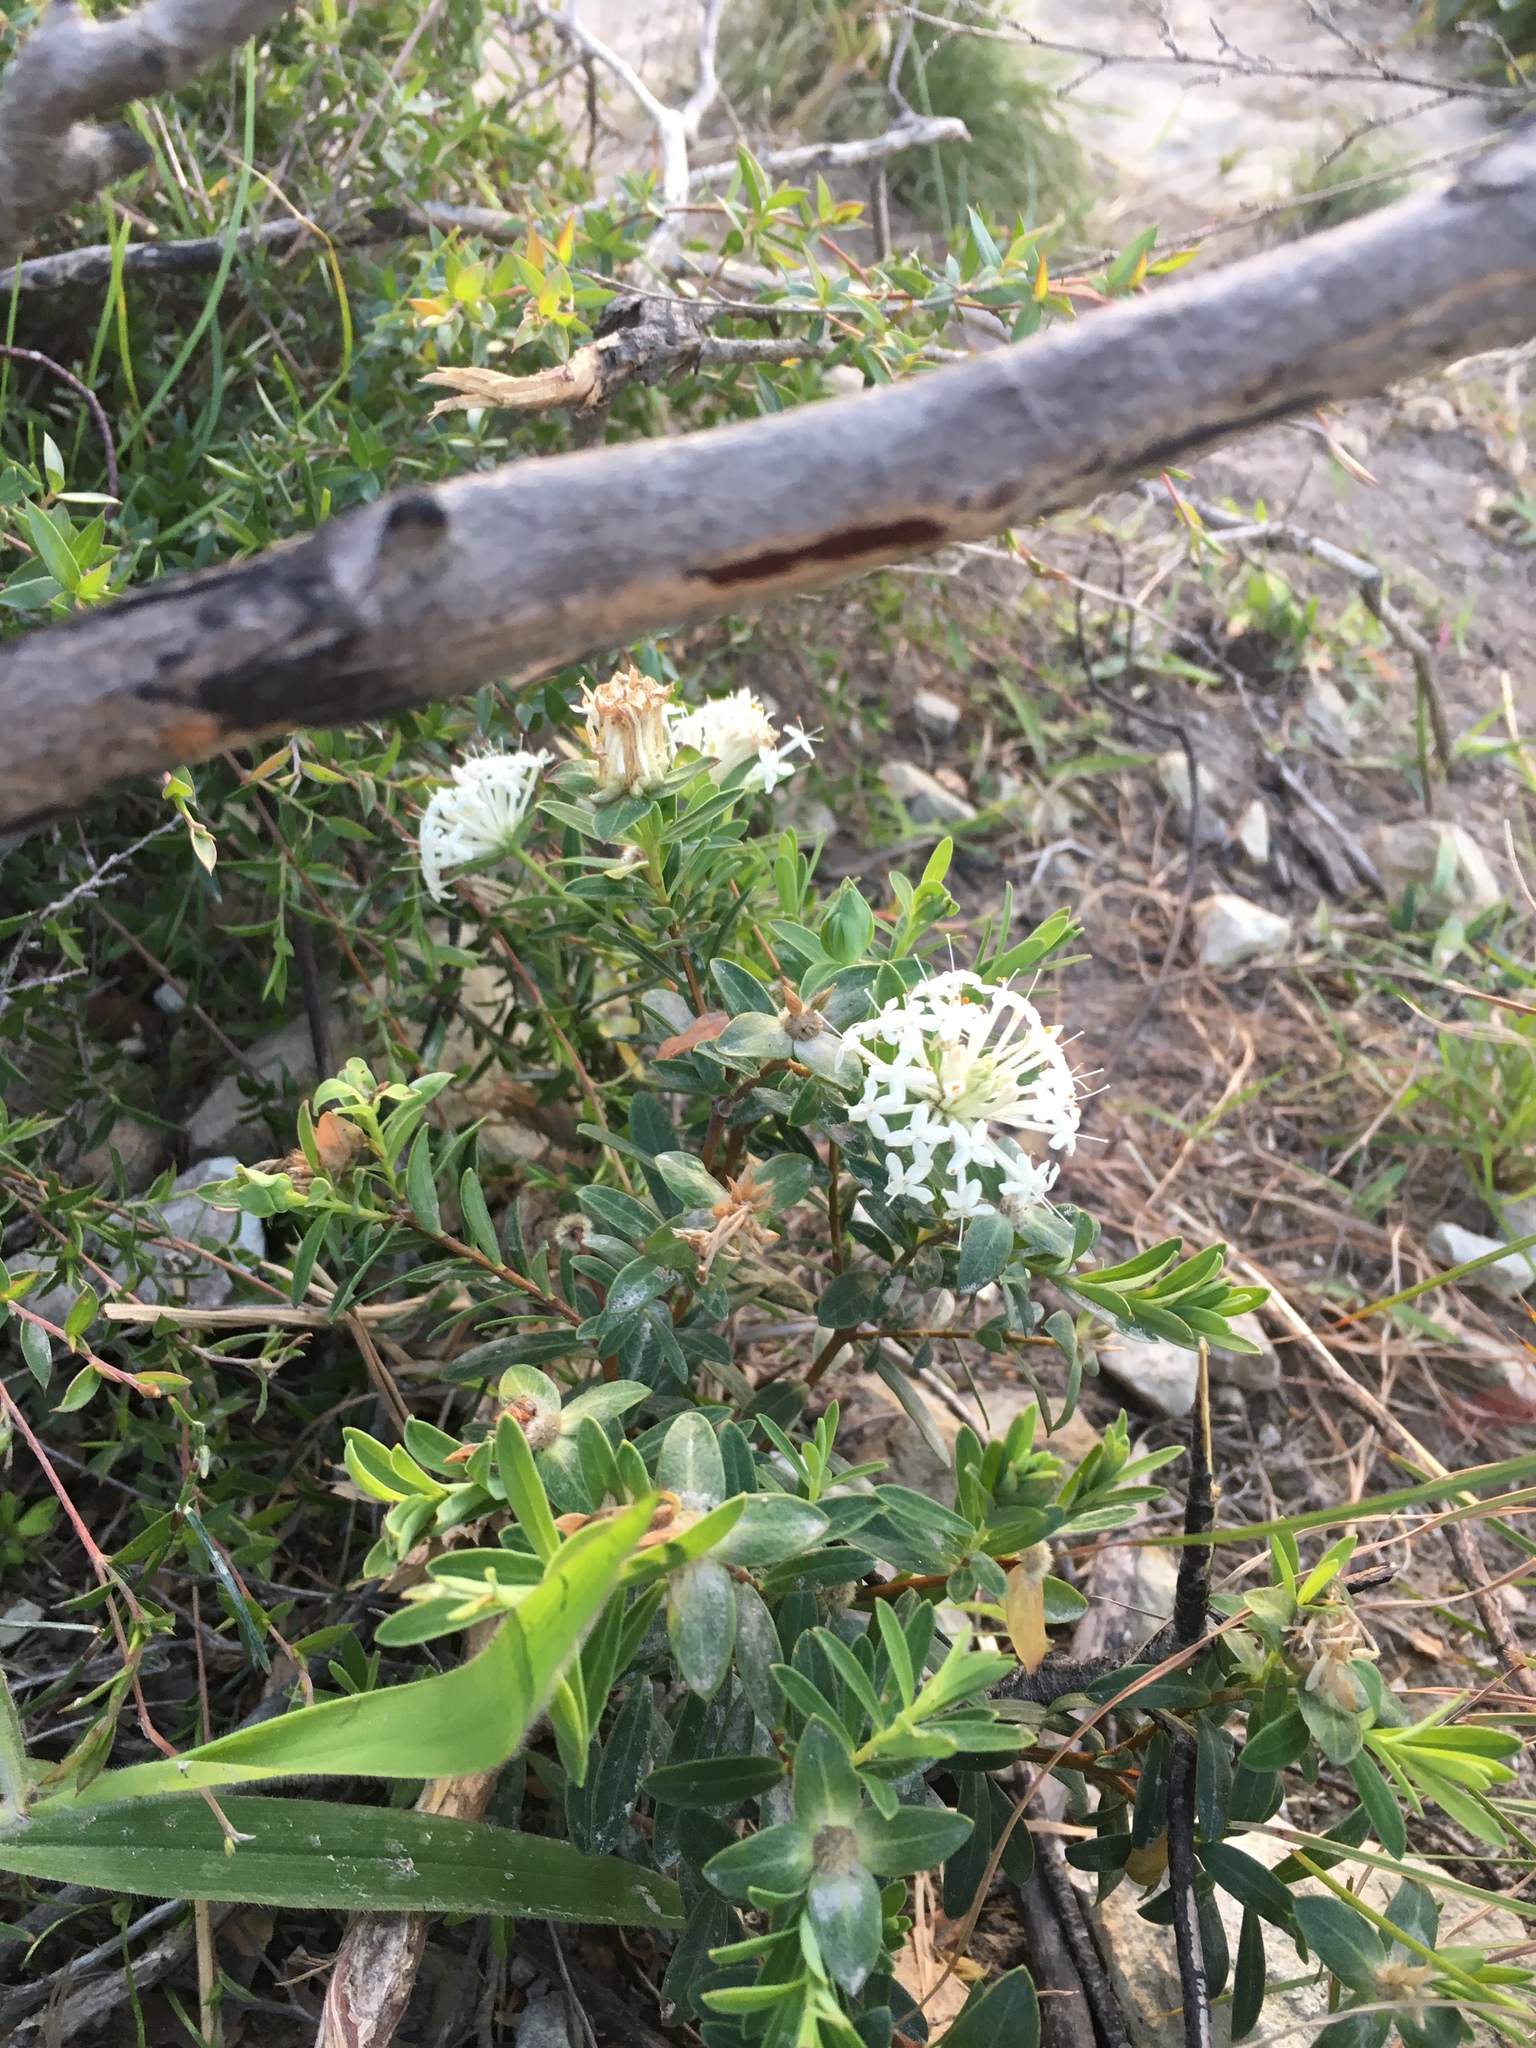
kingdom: Plantae
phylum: Tracheophyta
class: Magnoliopsida
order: Malvales
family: Thymelaeaceae
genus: Pimelea
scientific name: Pimelea linifolia
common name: Queen-of-the-bush
